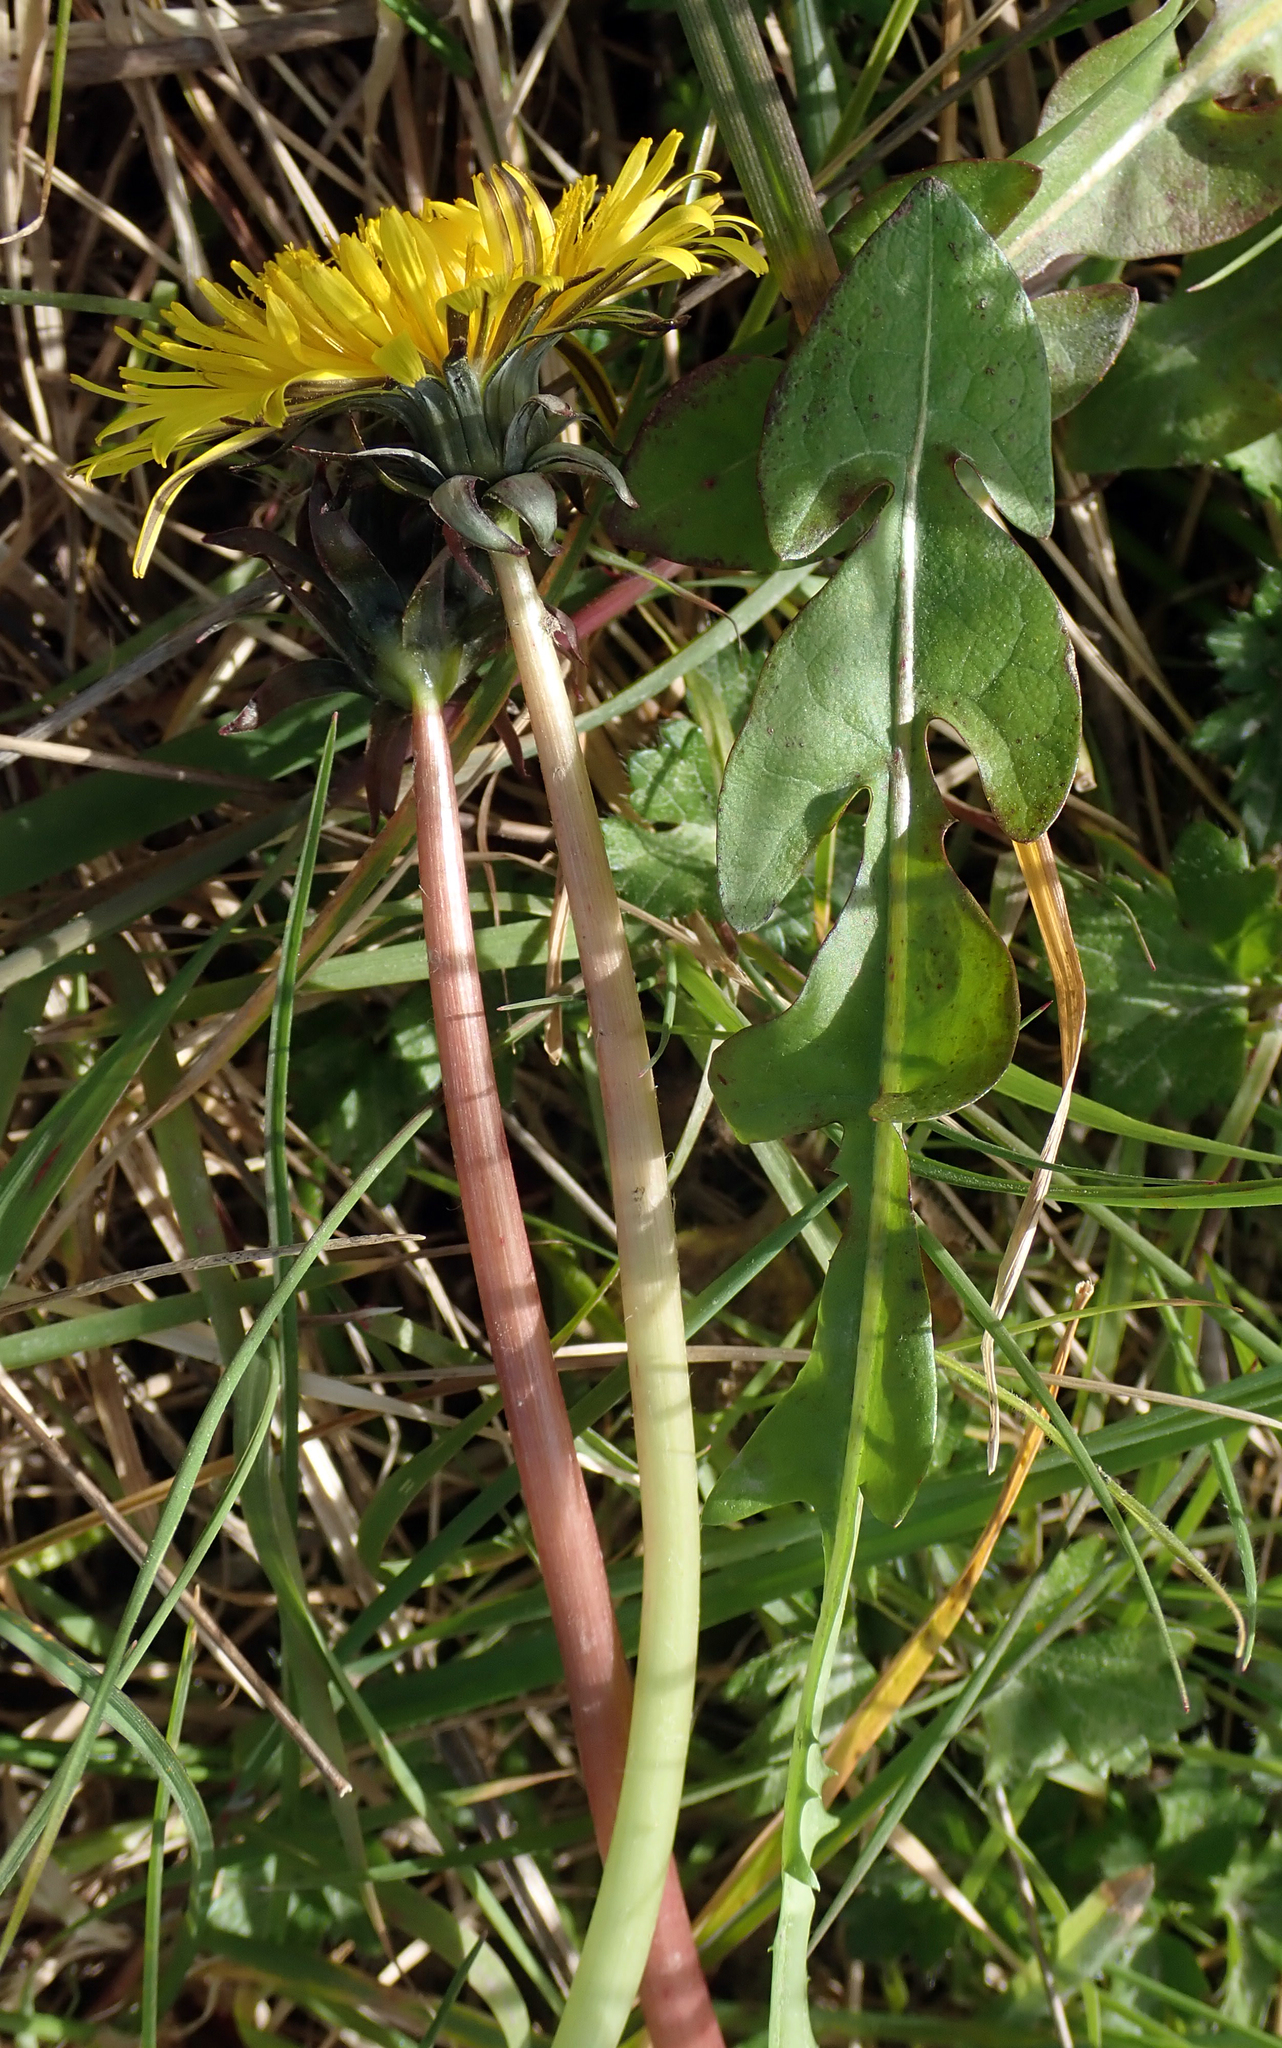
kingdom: Plantae
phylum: Tracheophyta
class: Magnoliopsida
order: Asterales
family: Asteraceae
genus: Taraxacum
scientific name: Taraxacum pseudohamatum
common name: False hook-lobed dandelion
